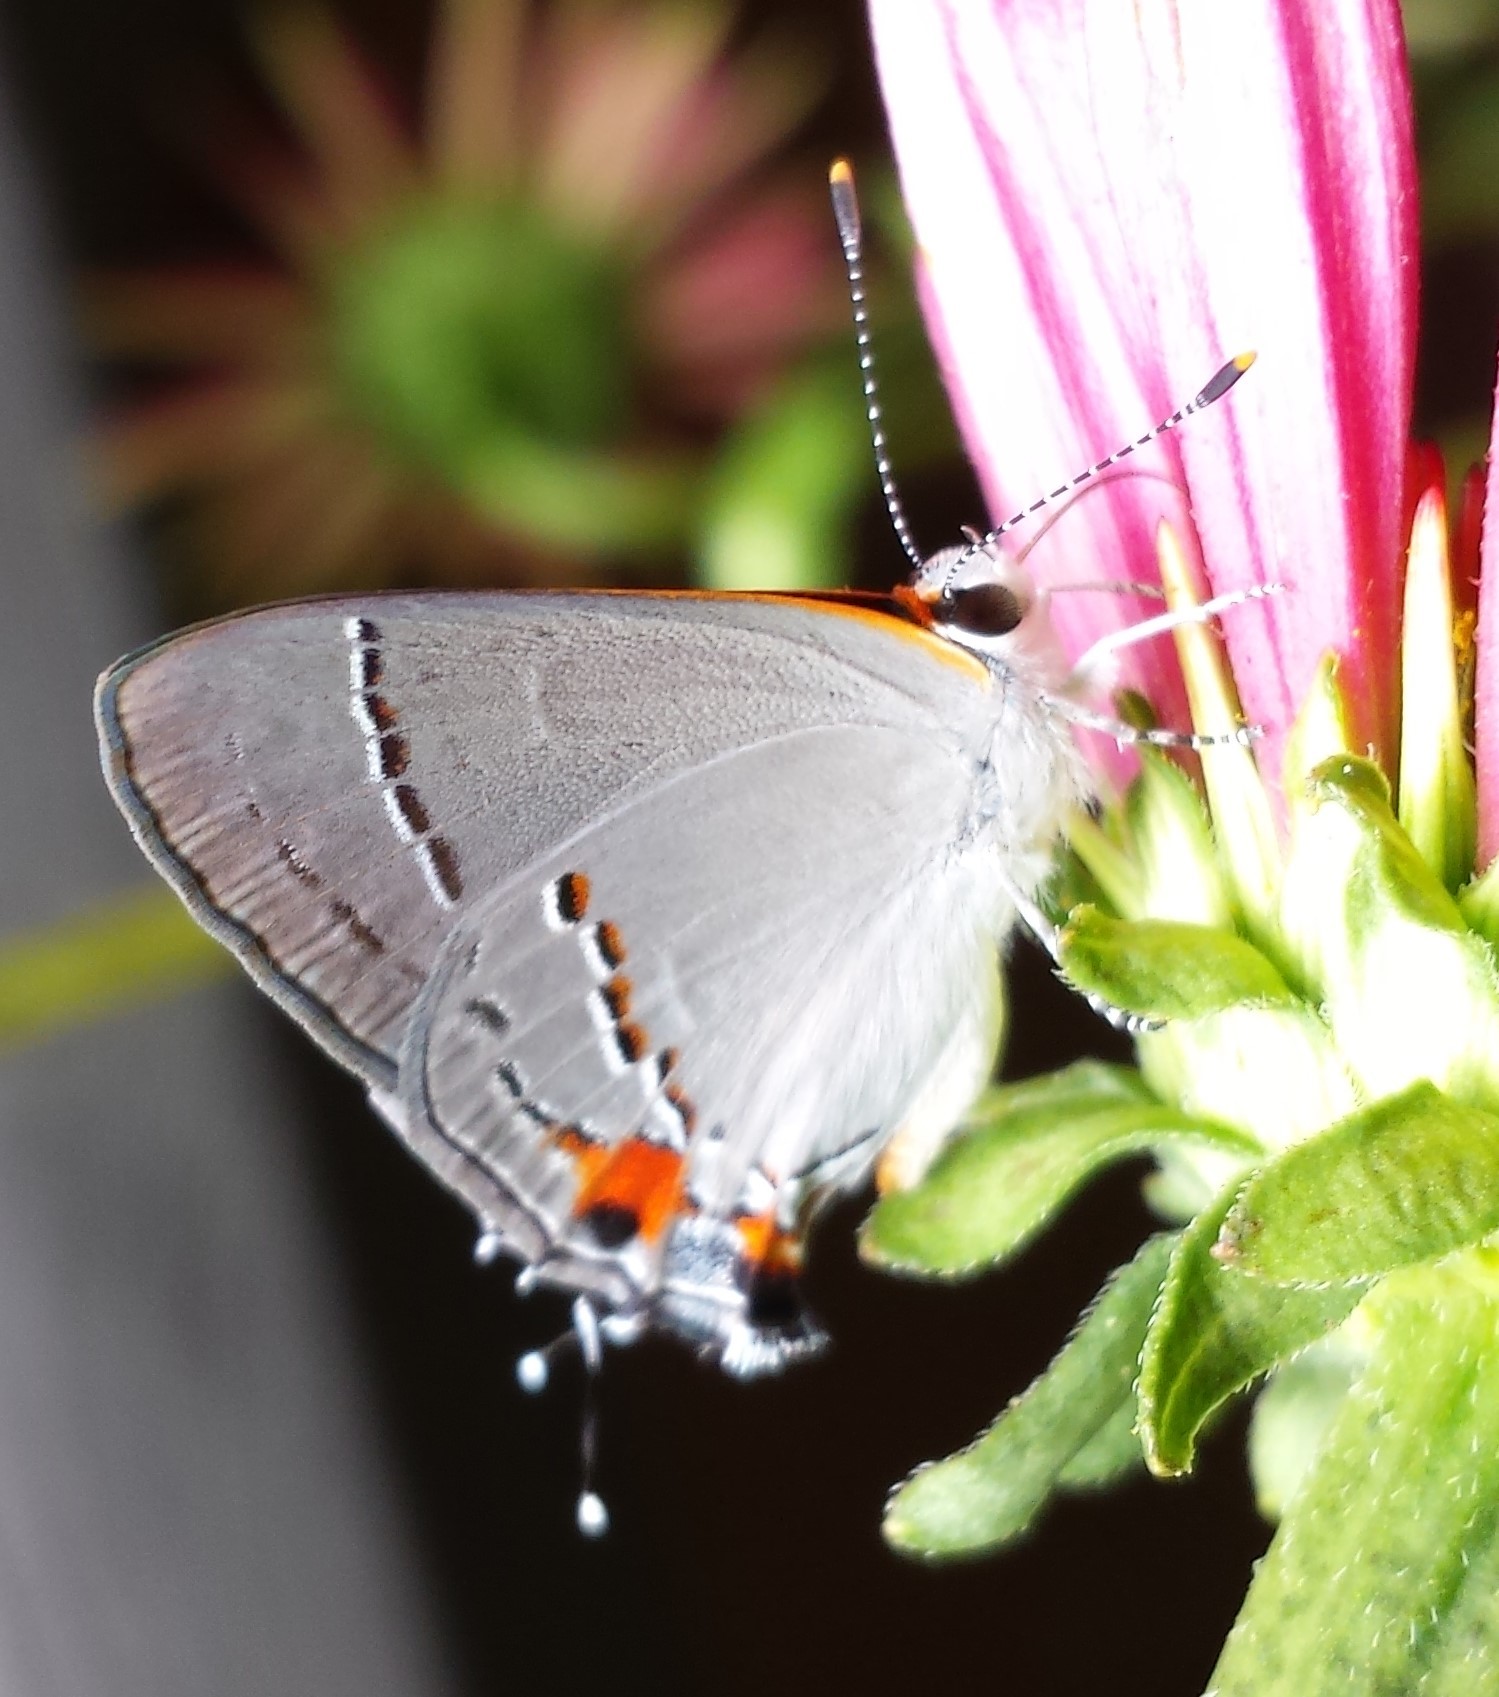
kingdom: Animalia
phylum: Arthropoda
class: Insecta
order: Lepidoptera
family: Lycaenidae
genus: Strymon
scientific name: Strymon melinus
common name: Gray hairstreak
